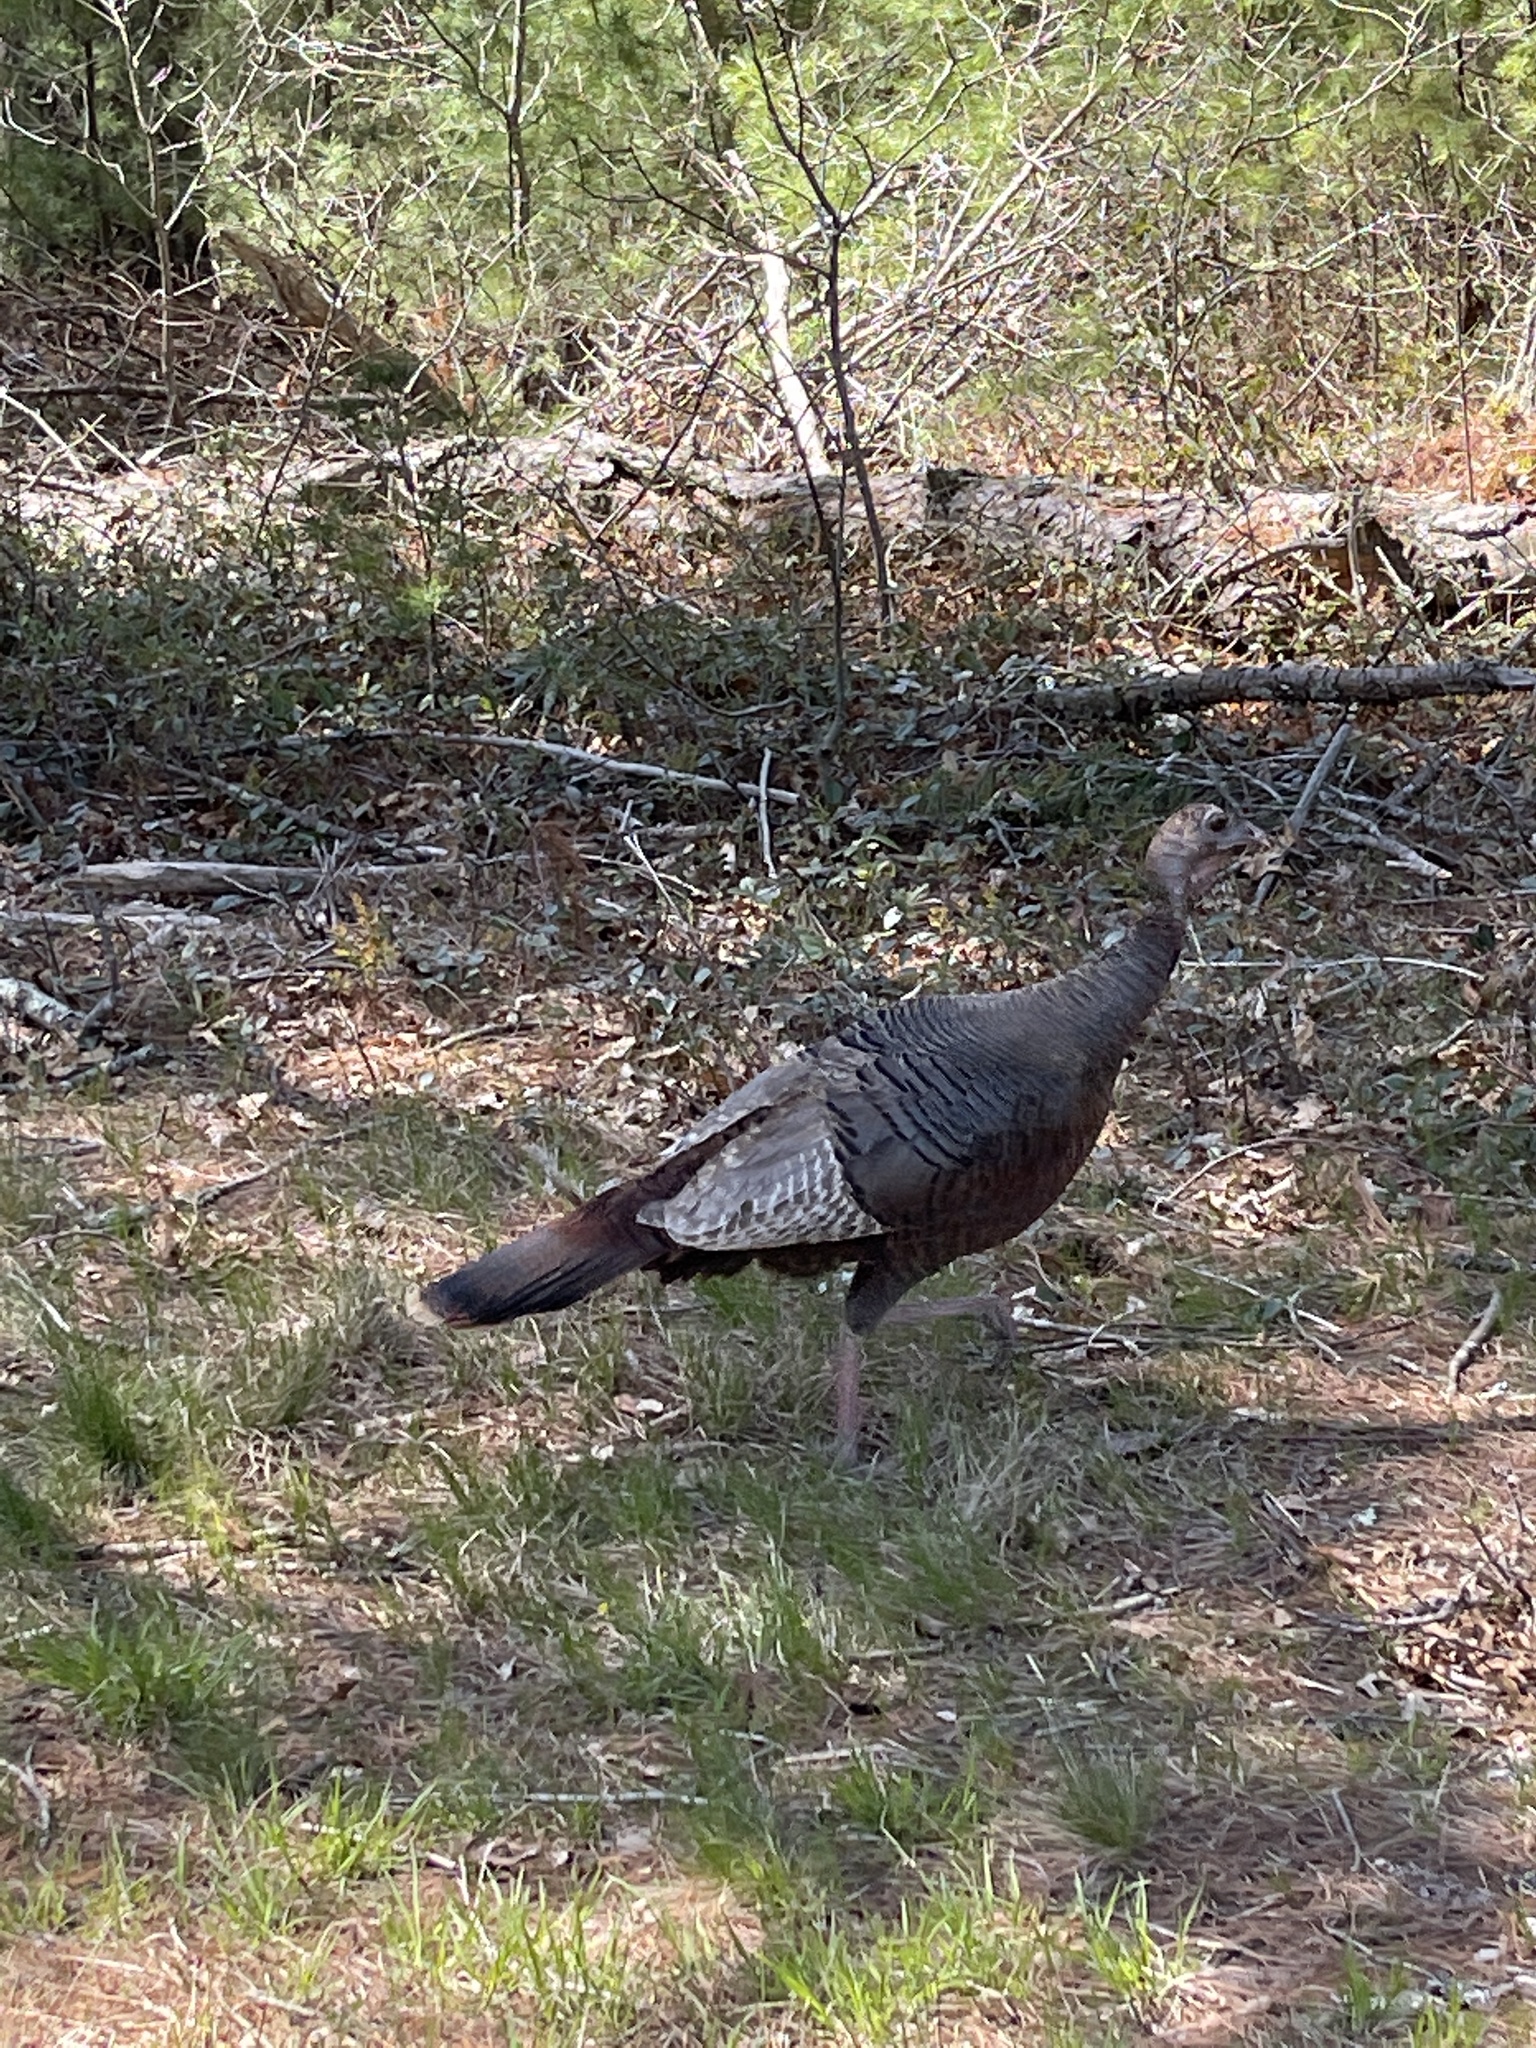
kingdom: Animalia
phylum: Chordata
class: Aves
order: Galliformes
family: Phasianidae
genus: Meleagris
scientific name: Meleagris gallopavo
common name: Wild turkey
